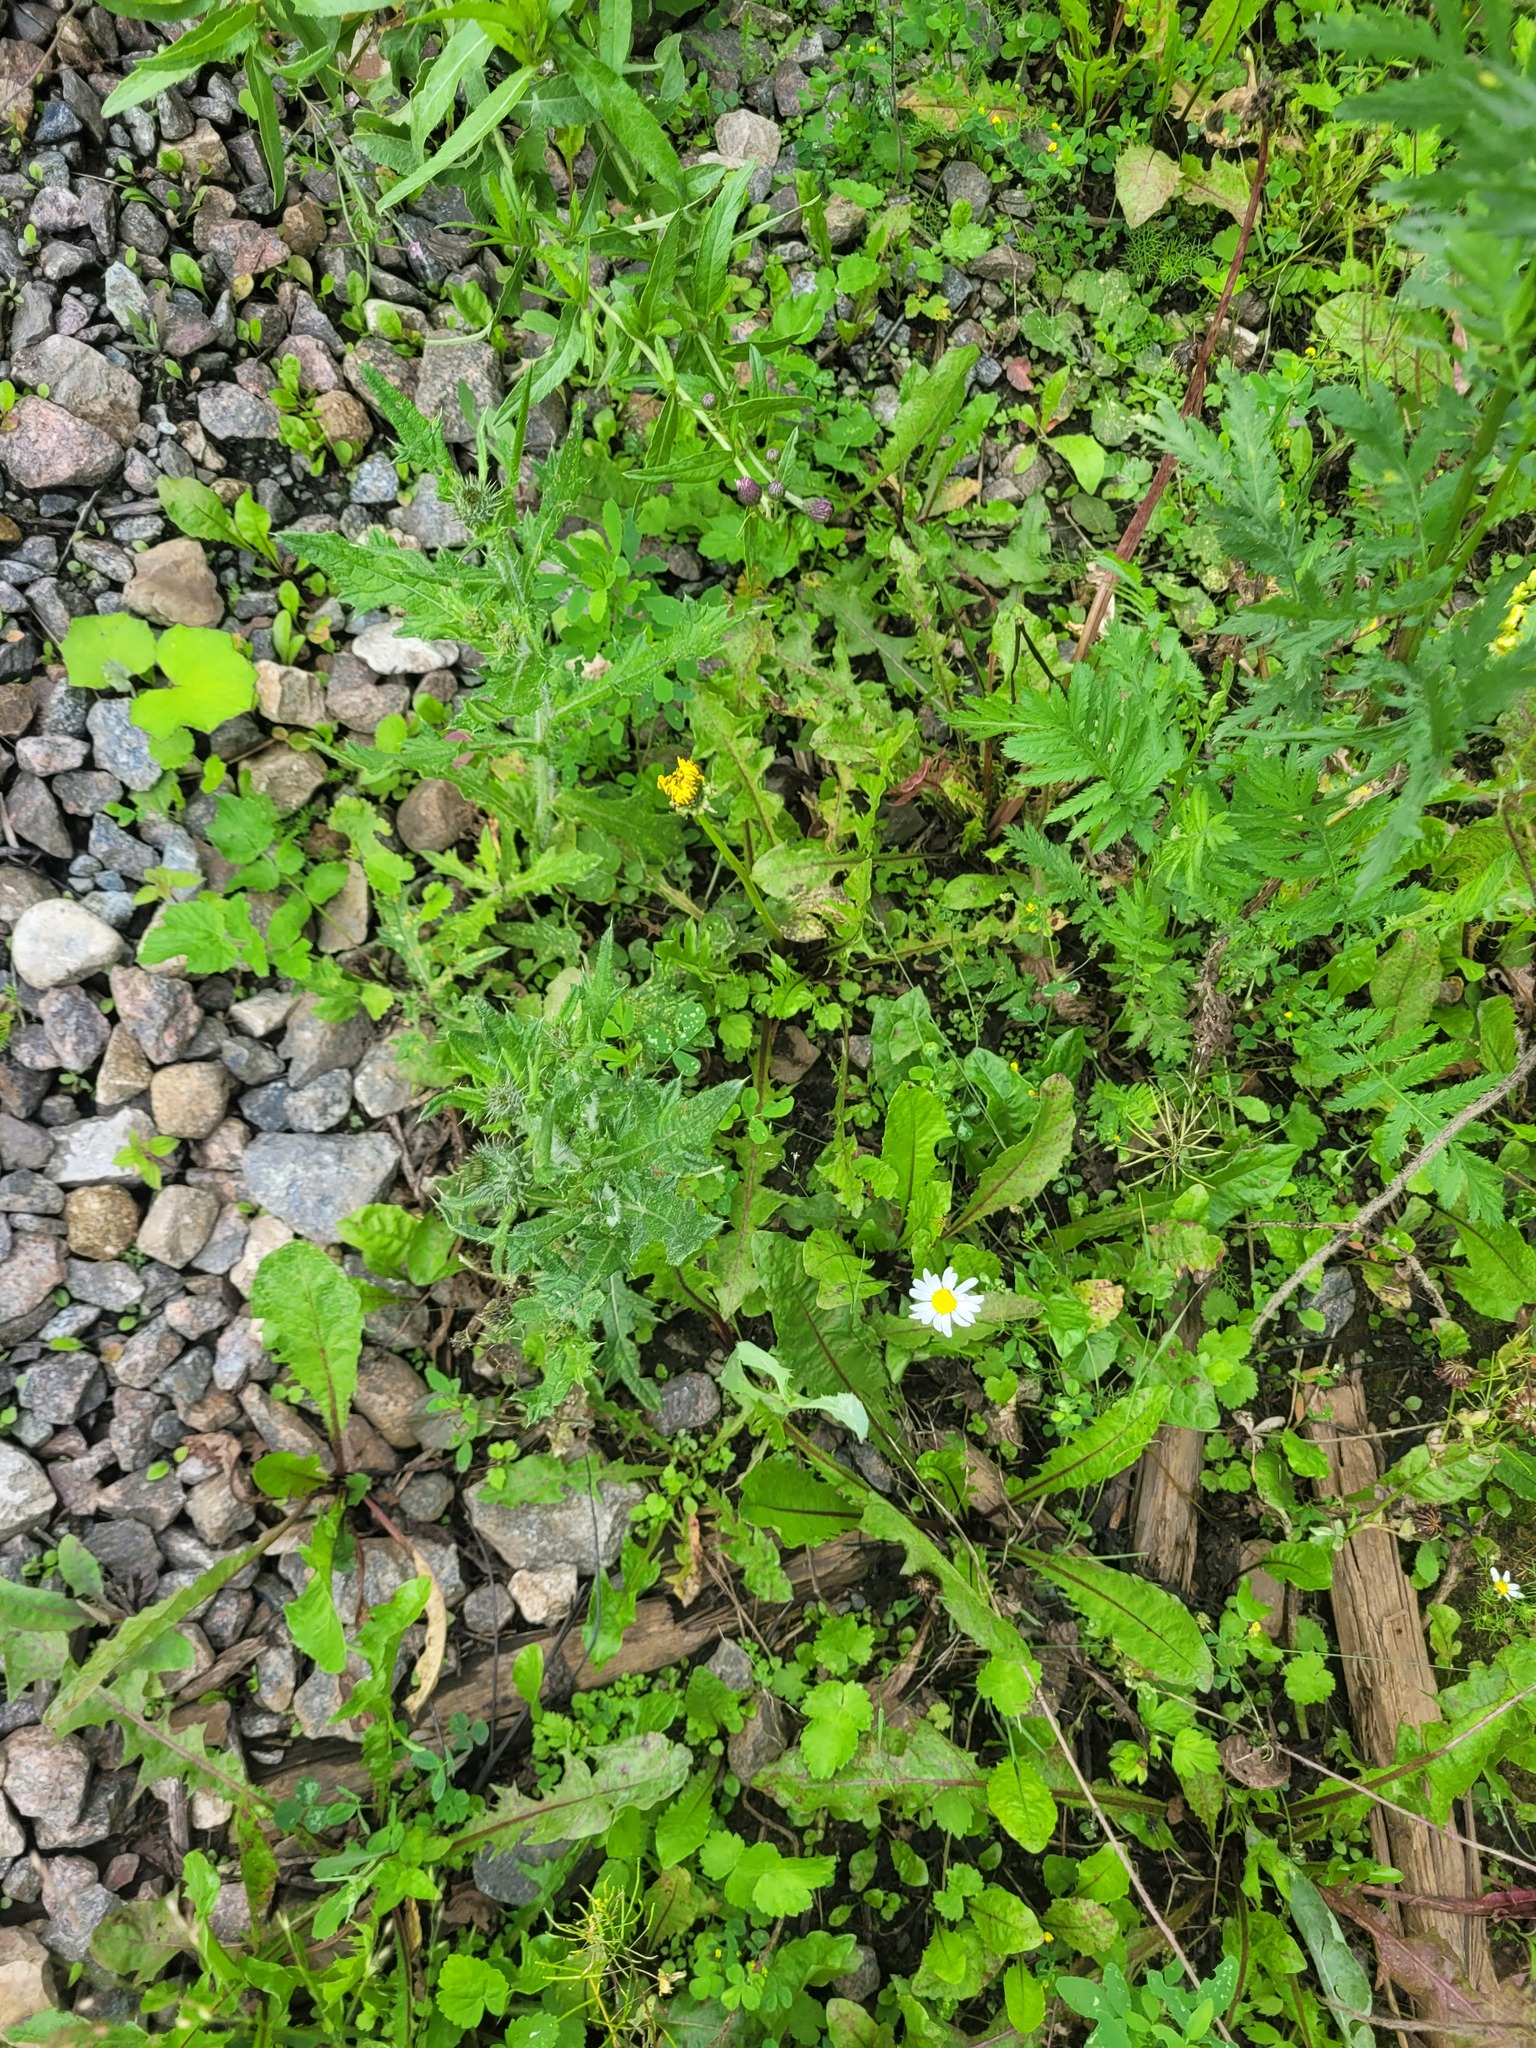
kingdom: Plantae
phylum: Tracheophyta
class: Magnoliopsida
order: Asterales
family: Asteraceae
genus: Cirsium
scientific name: Cirsium vulgare
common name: Bull thistle
